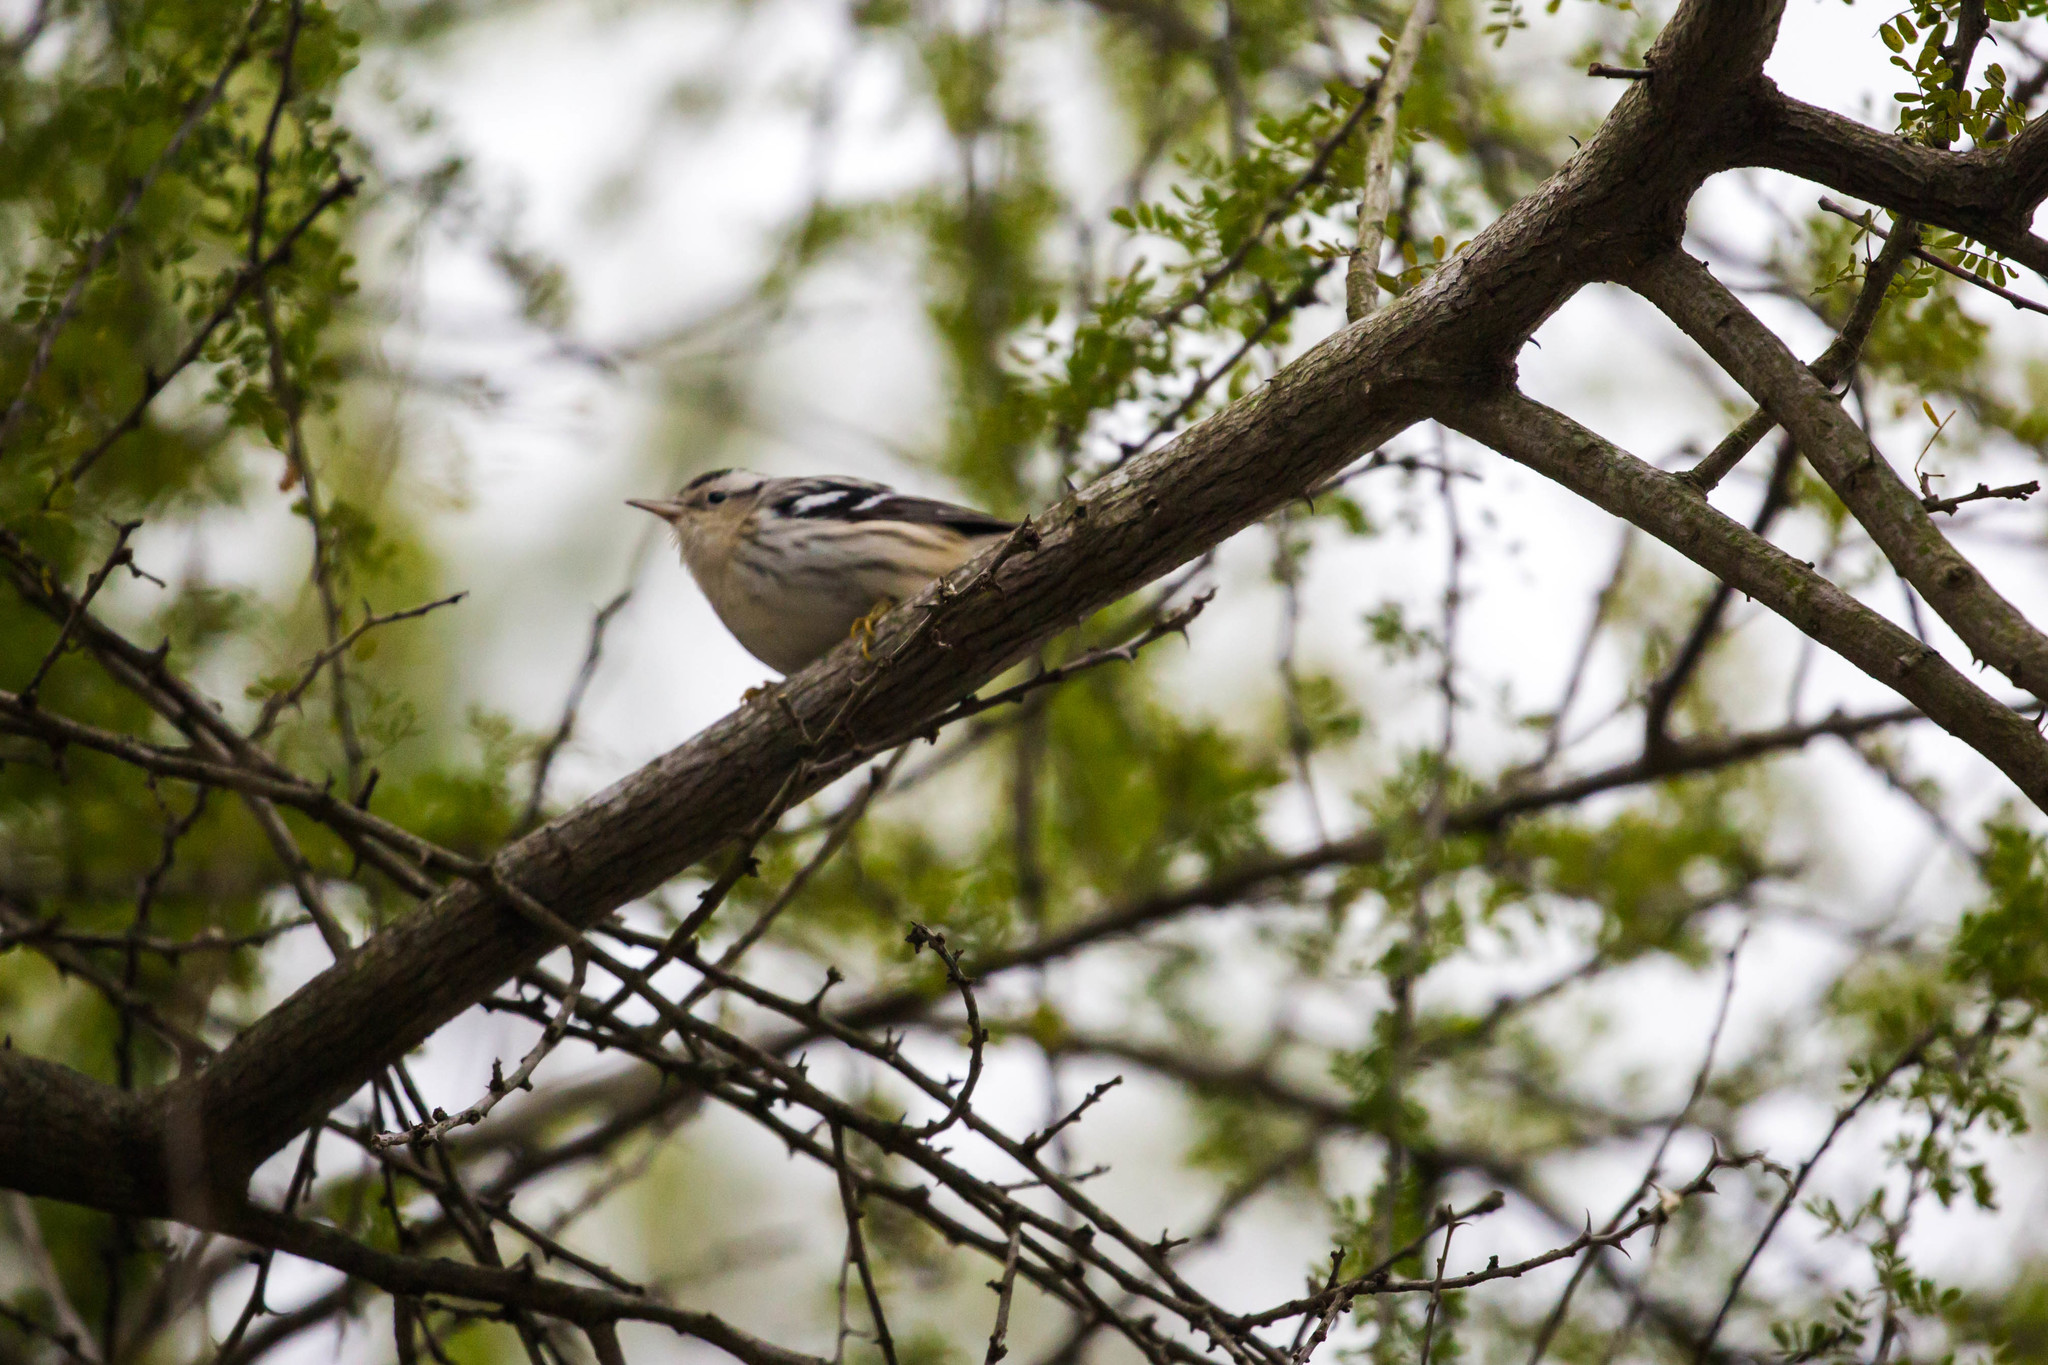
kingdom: Animalia
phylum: Chordata
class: Aves
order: Passeriformes
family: Parulidae
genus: Mniotilta
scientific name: Mniotilta varia
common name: Black-and-white warbler
